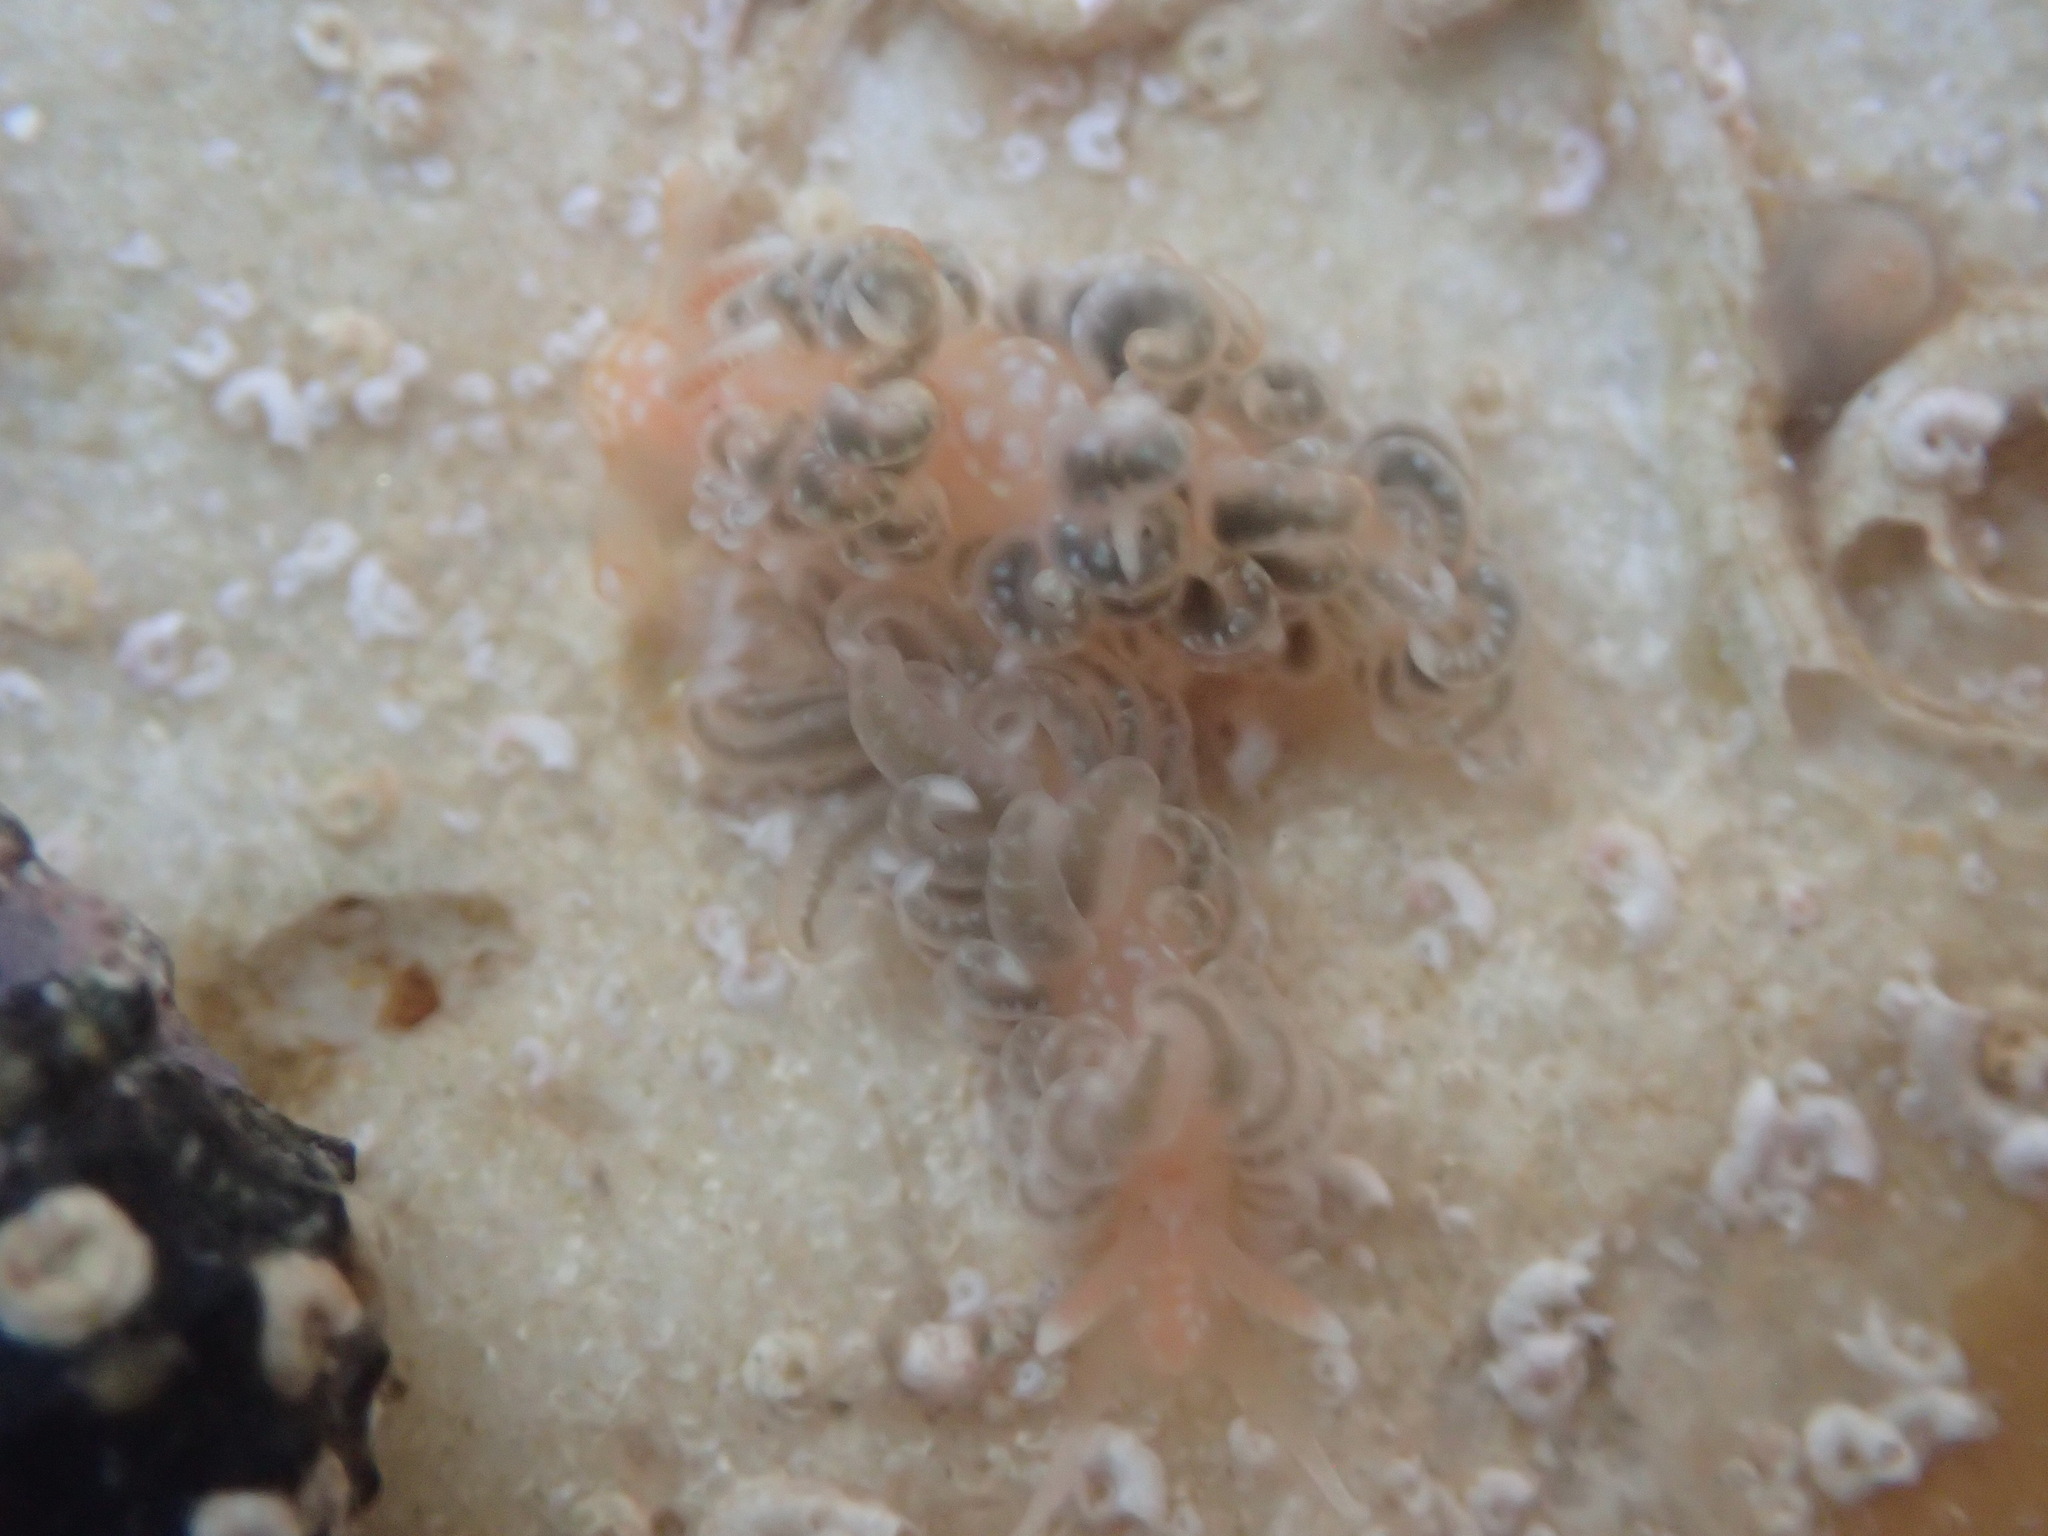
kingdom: Animalia
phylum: Mollusca
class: Gastropoda
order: Nudibranchia
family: Aeolidiidae
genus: Spurilla
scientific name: Spurilla braziliana
